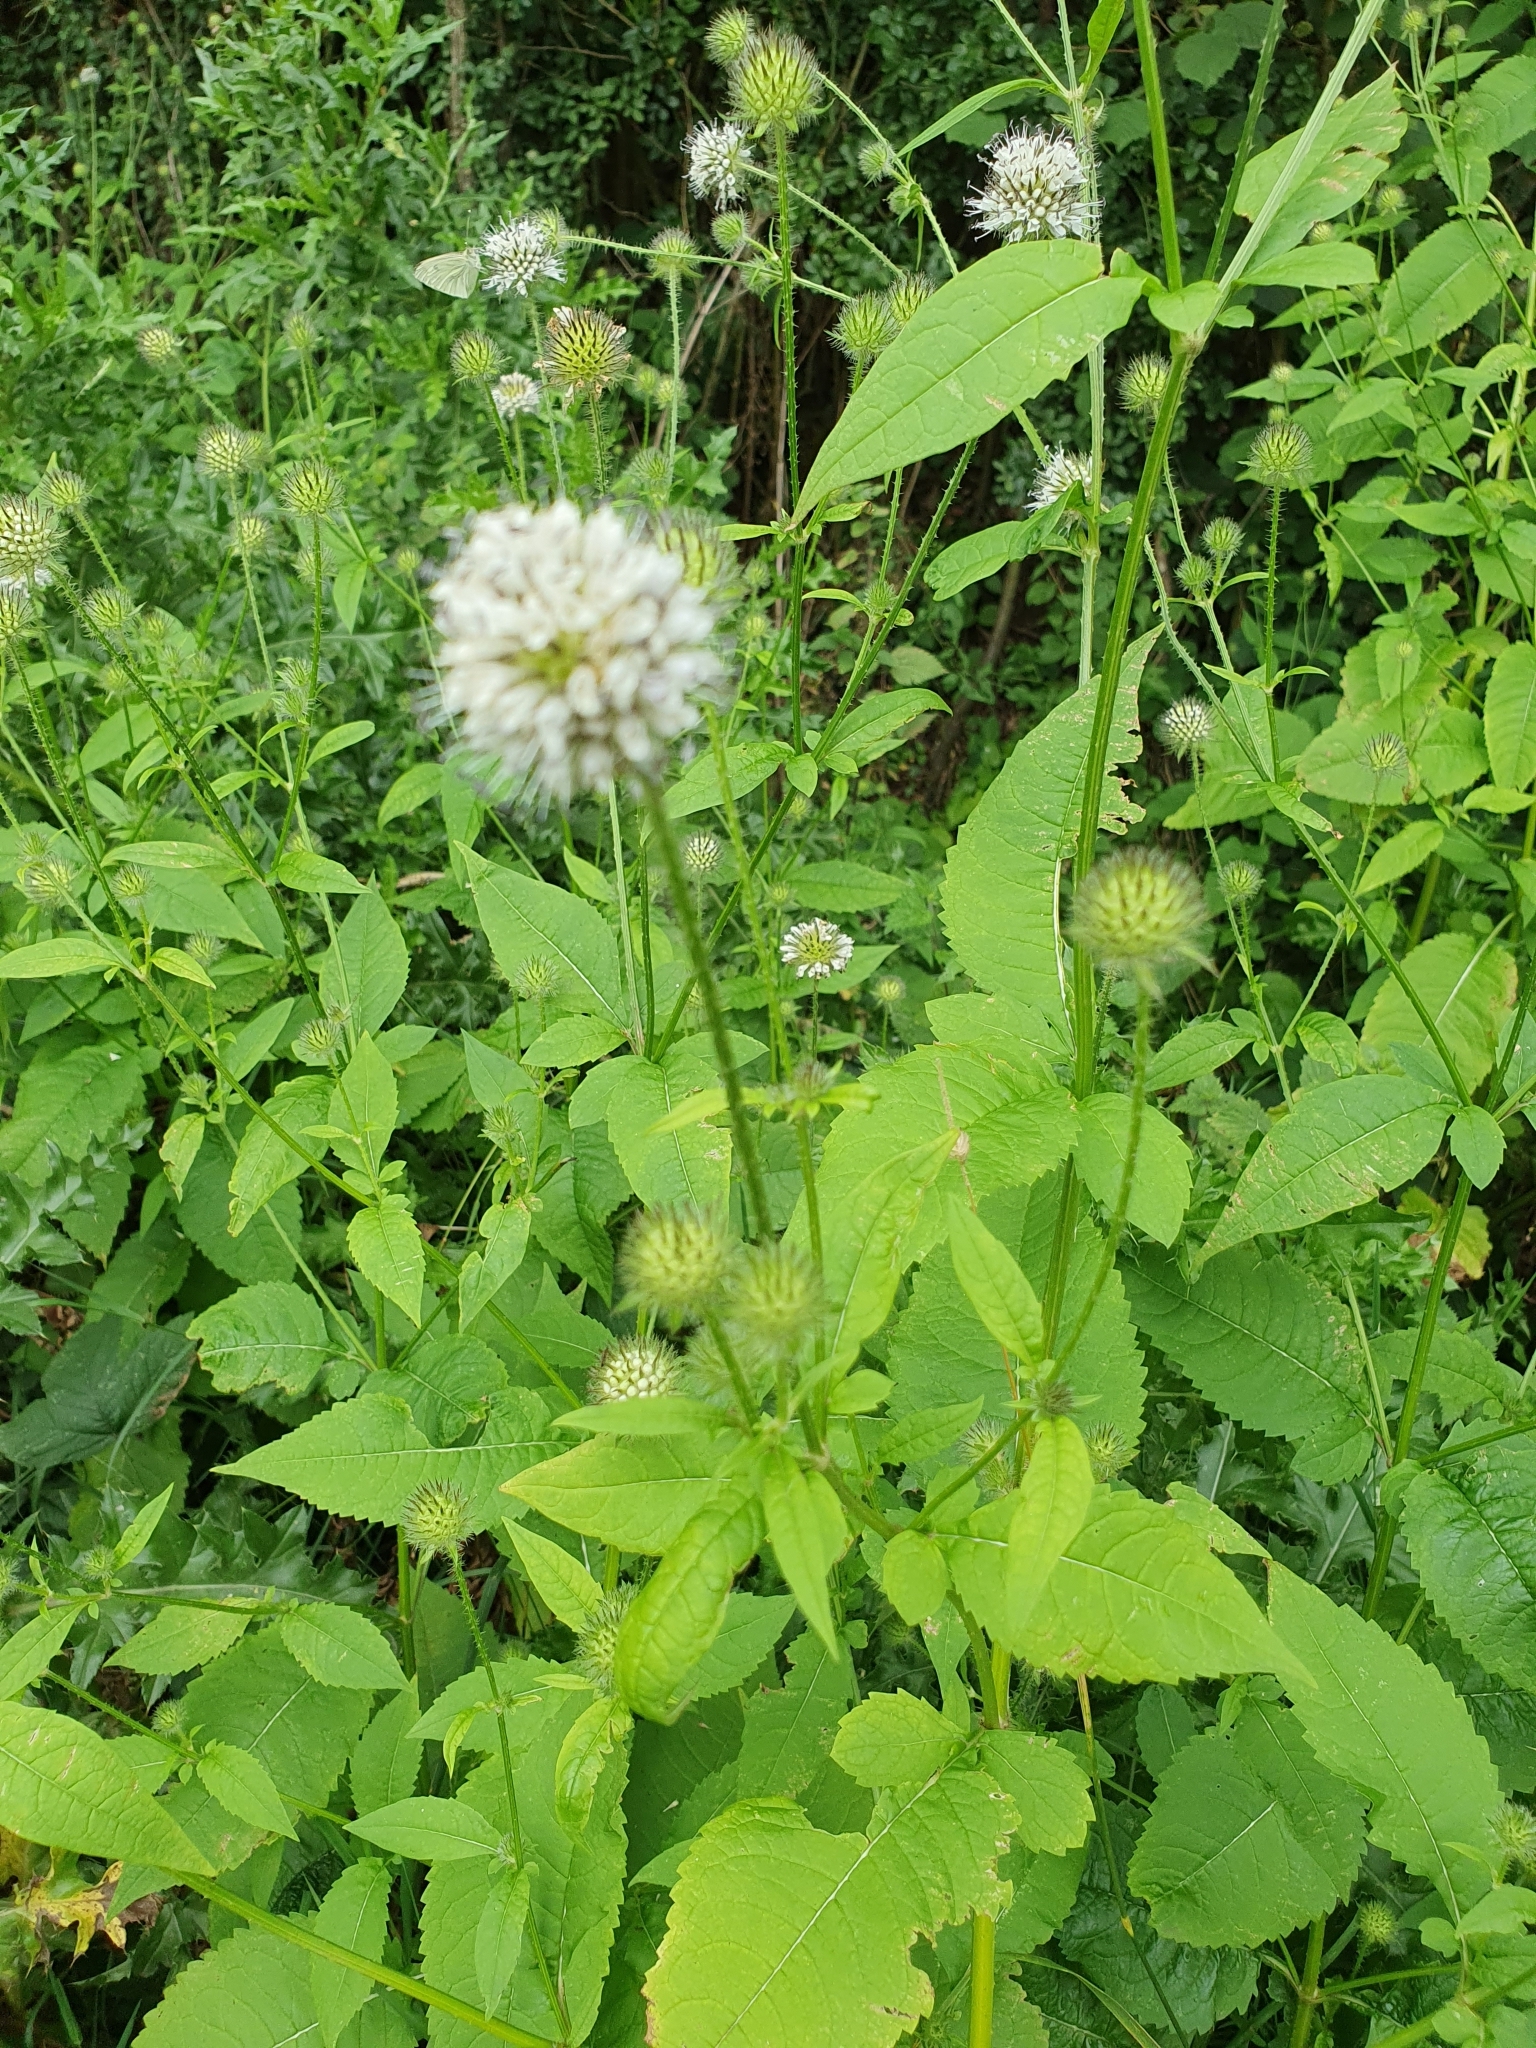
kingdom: Plantae
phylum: Tracheophyta
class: Magnoliopsida
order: Dipsacales
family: Caprifoliaceae
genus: Dipsacus
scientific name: Dipsacus pilosus
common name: Small teasel
